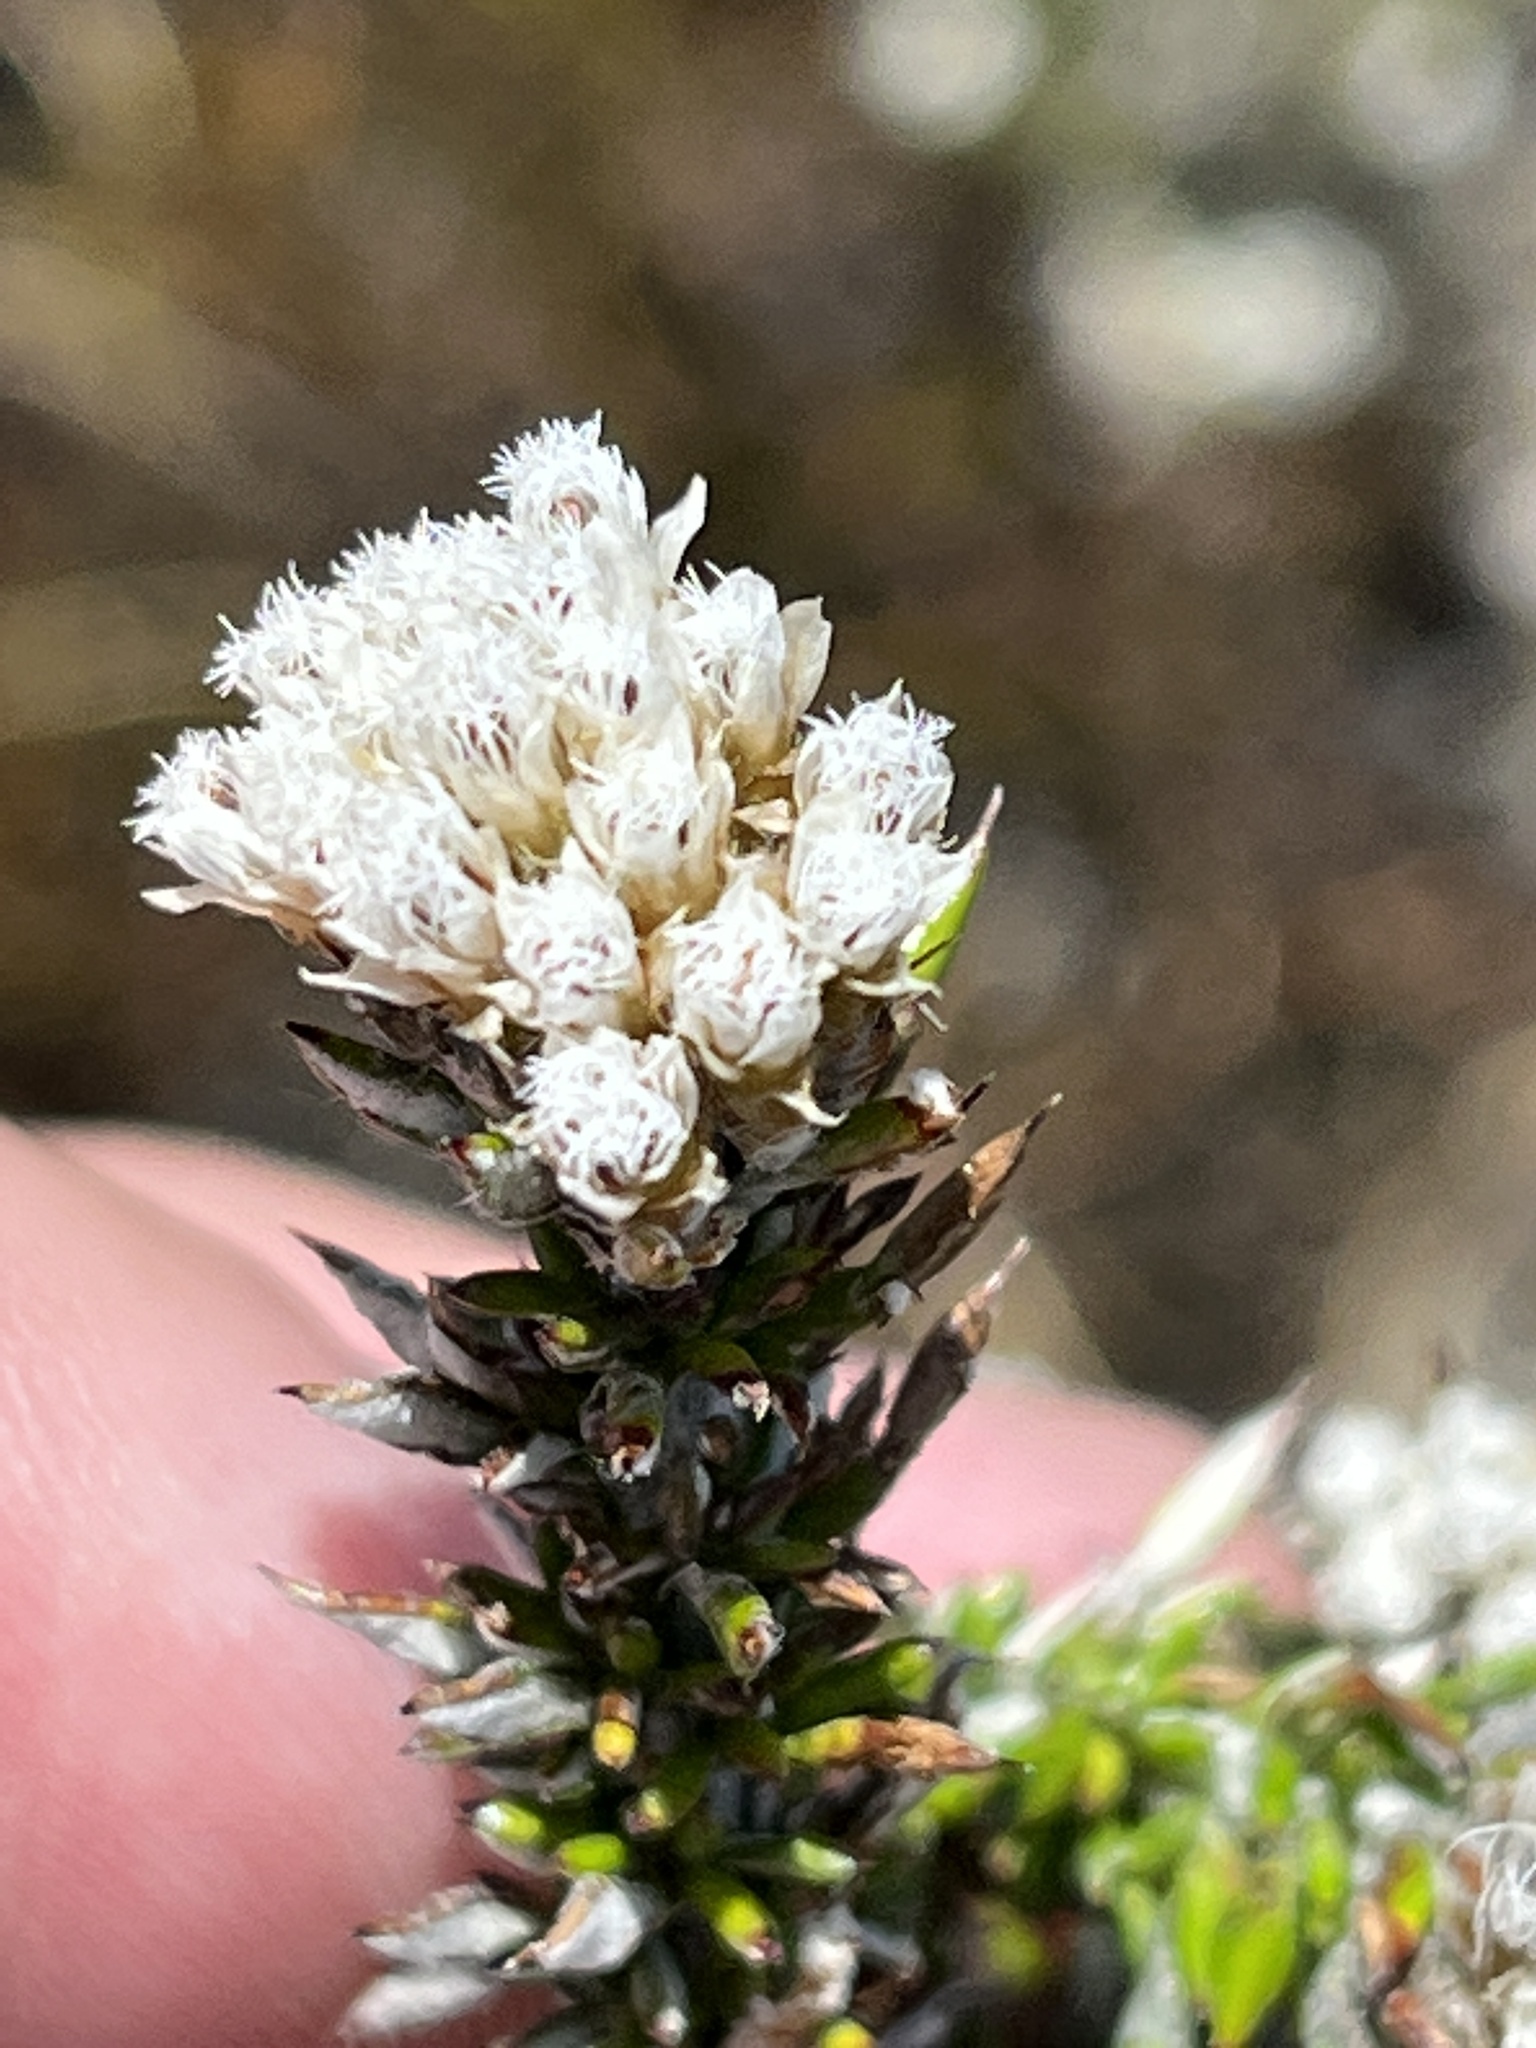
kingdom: Plantae
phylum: Tracheophyta
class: Magnoliopsida
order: Asterales
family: Asteraceae
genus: Metalasia
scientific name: Metalasia densa
